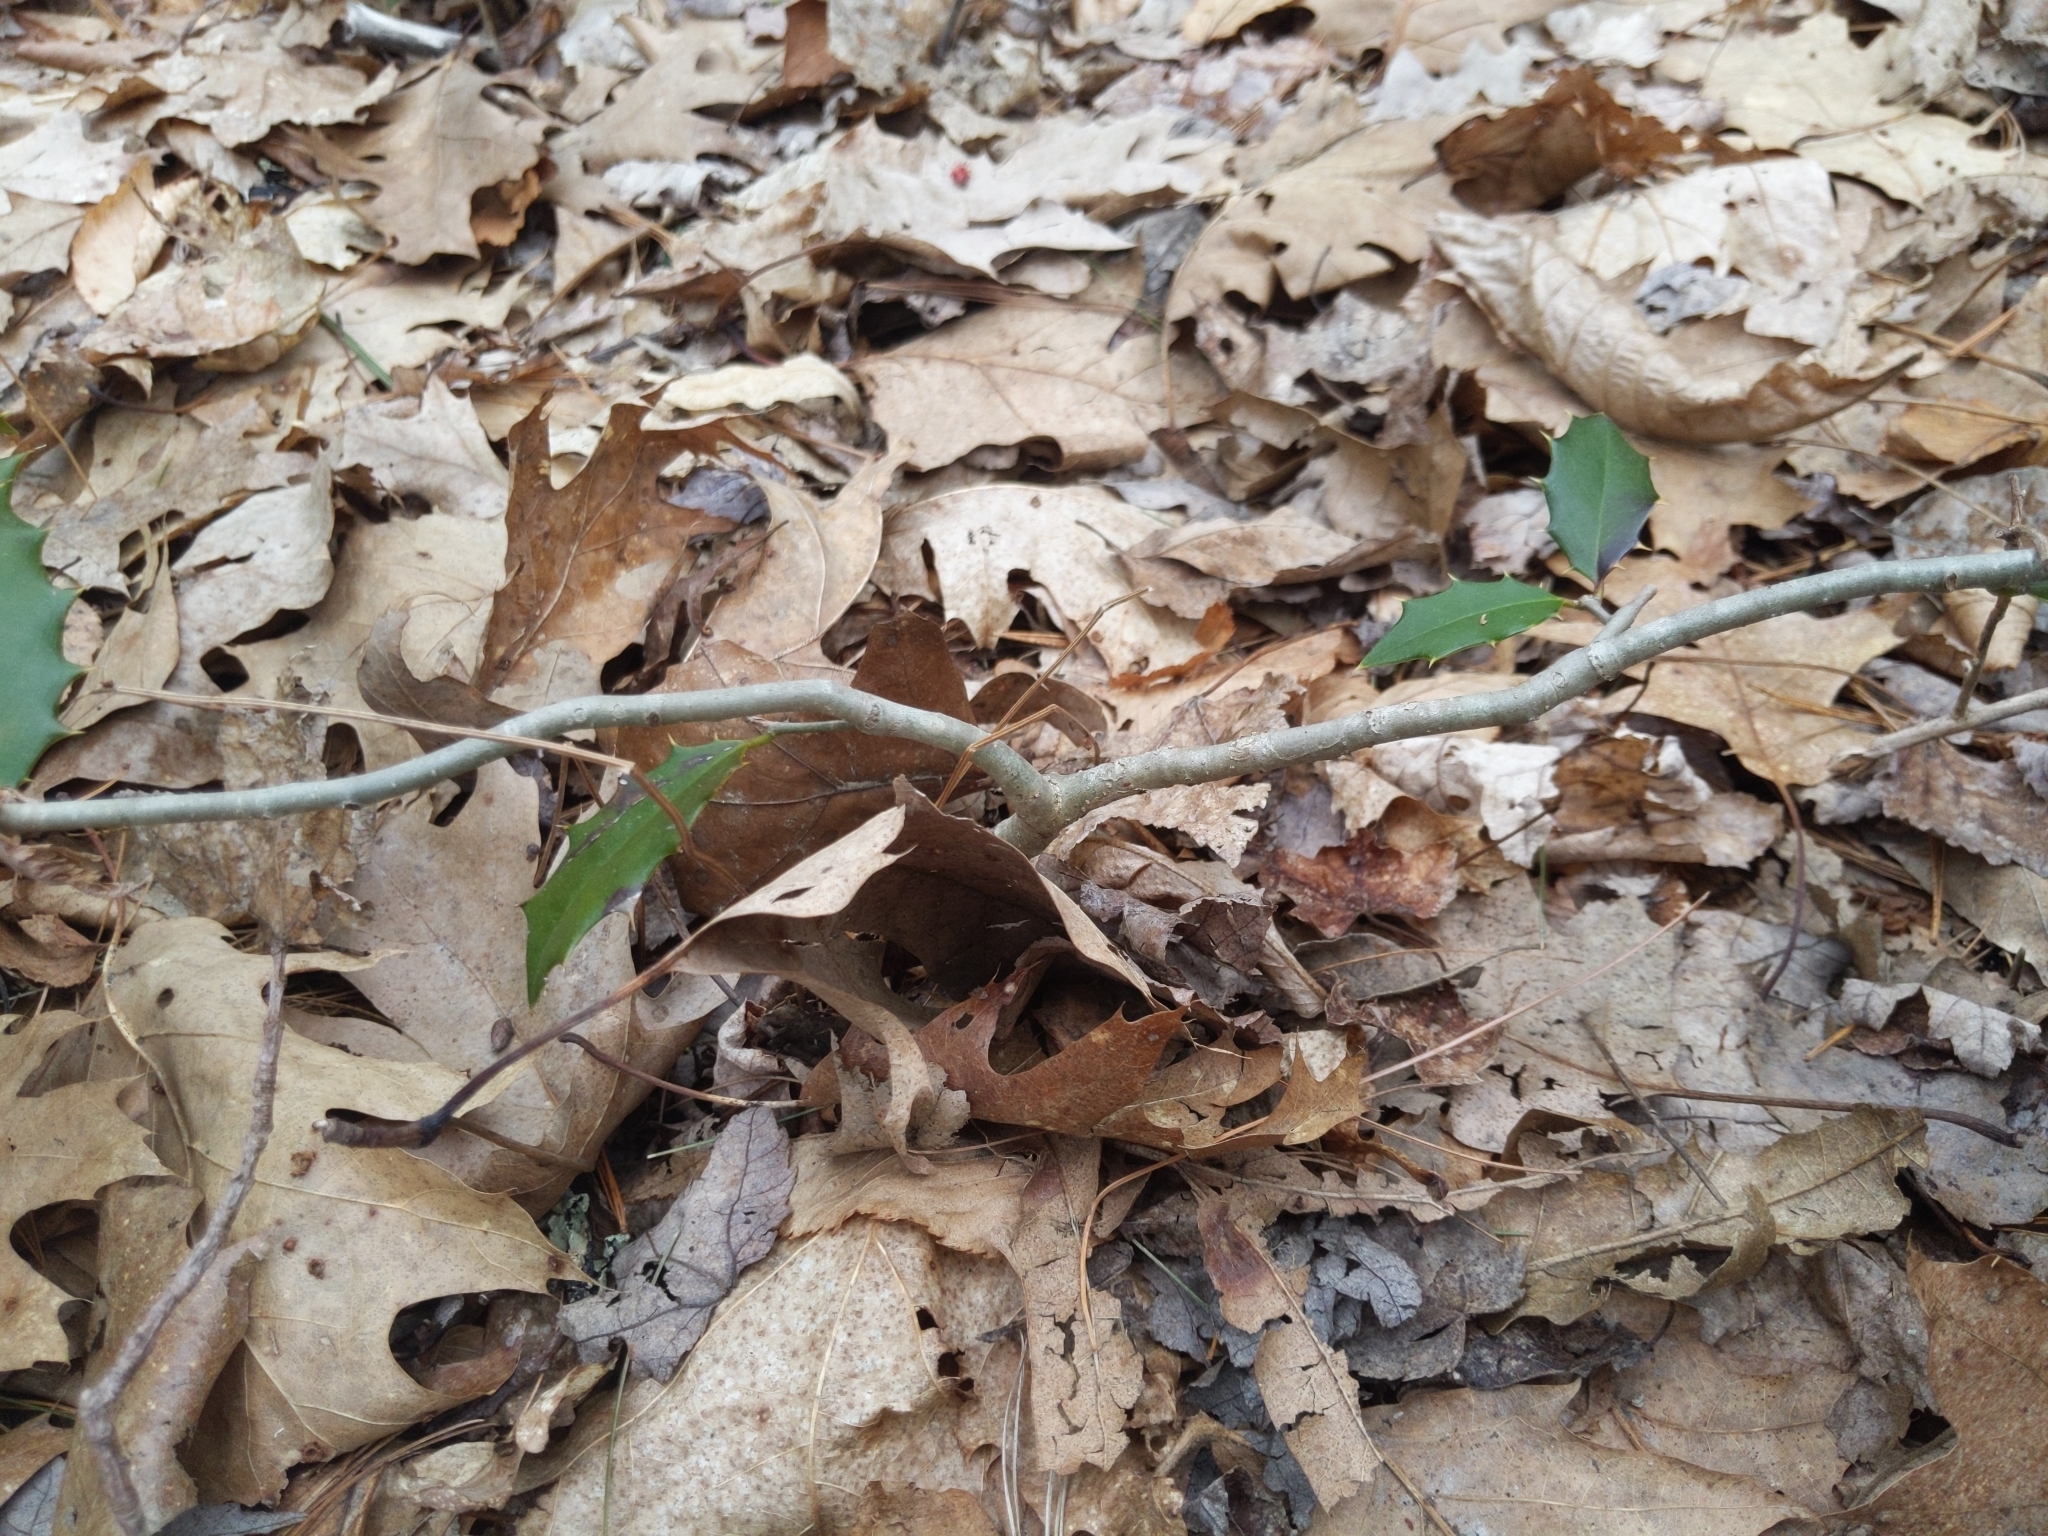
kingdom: Plantae
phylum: Tracheophyta
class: Magnoliopsida
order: Aquifoliales
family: Aquifoliaceae
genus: Ilex
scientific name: Ilex opaca
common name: American holly
